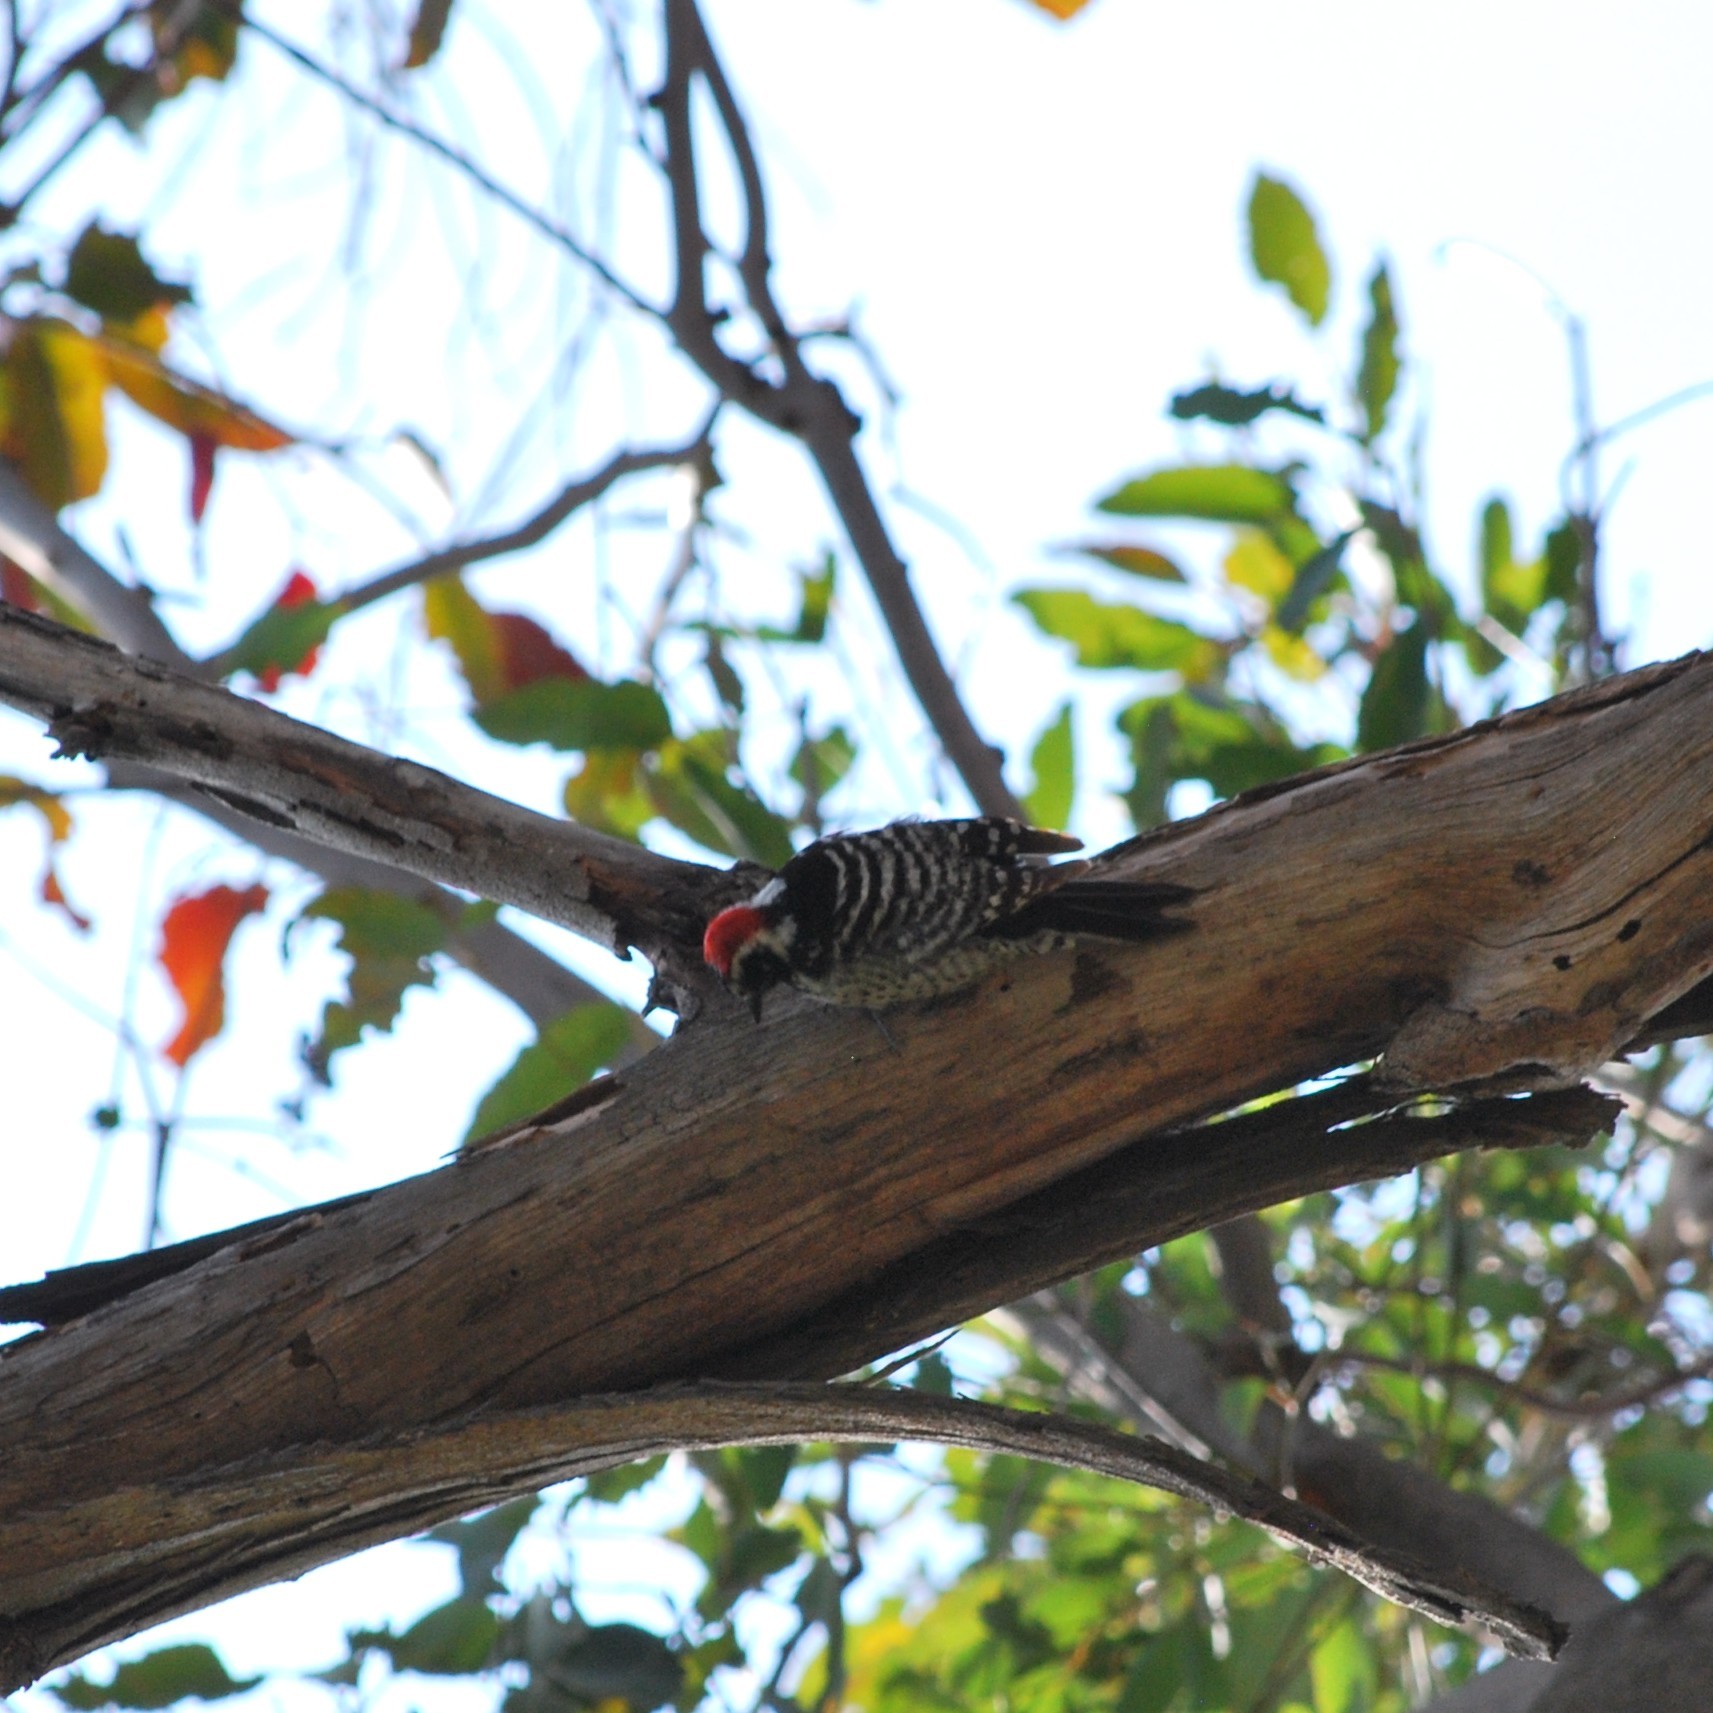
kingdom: Animalia
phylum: Chordata
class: Aves
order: Piciformes
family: Picidae
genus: Dryobates
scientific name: Dryobates nuttallii
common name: Nuttall's woodpecker
